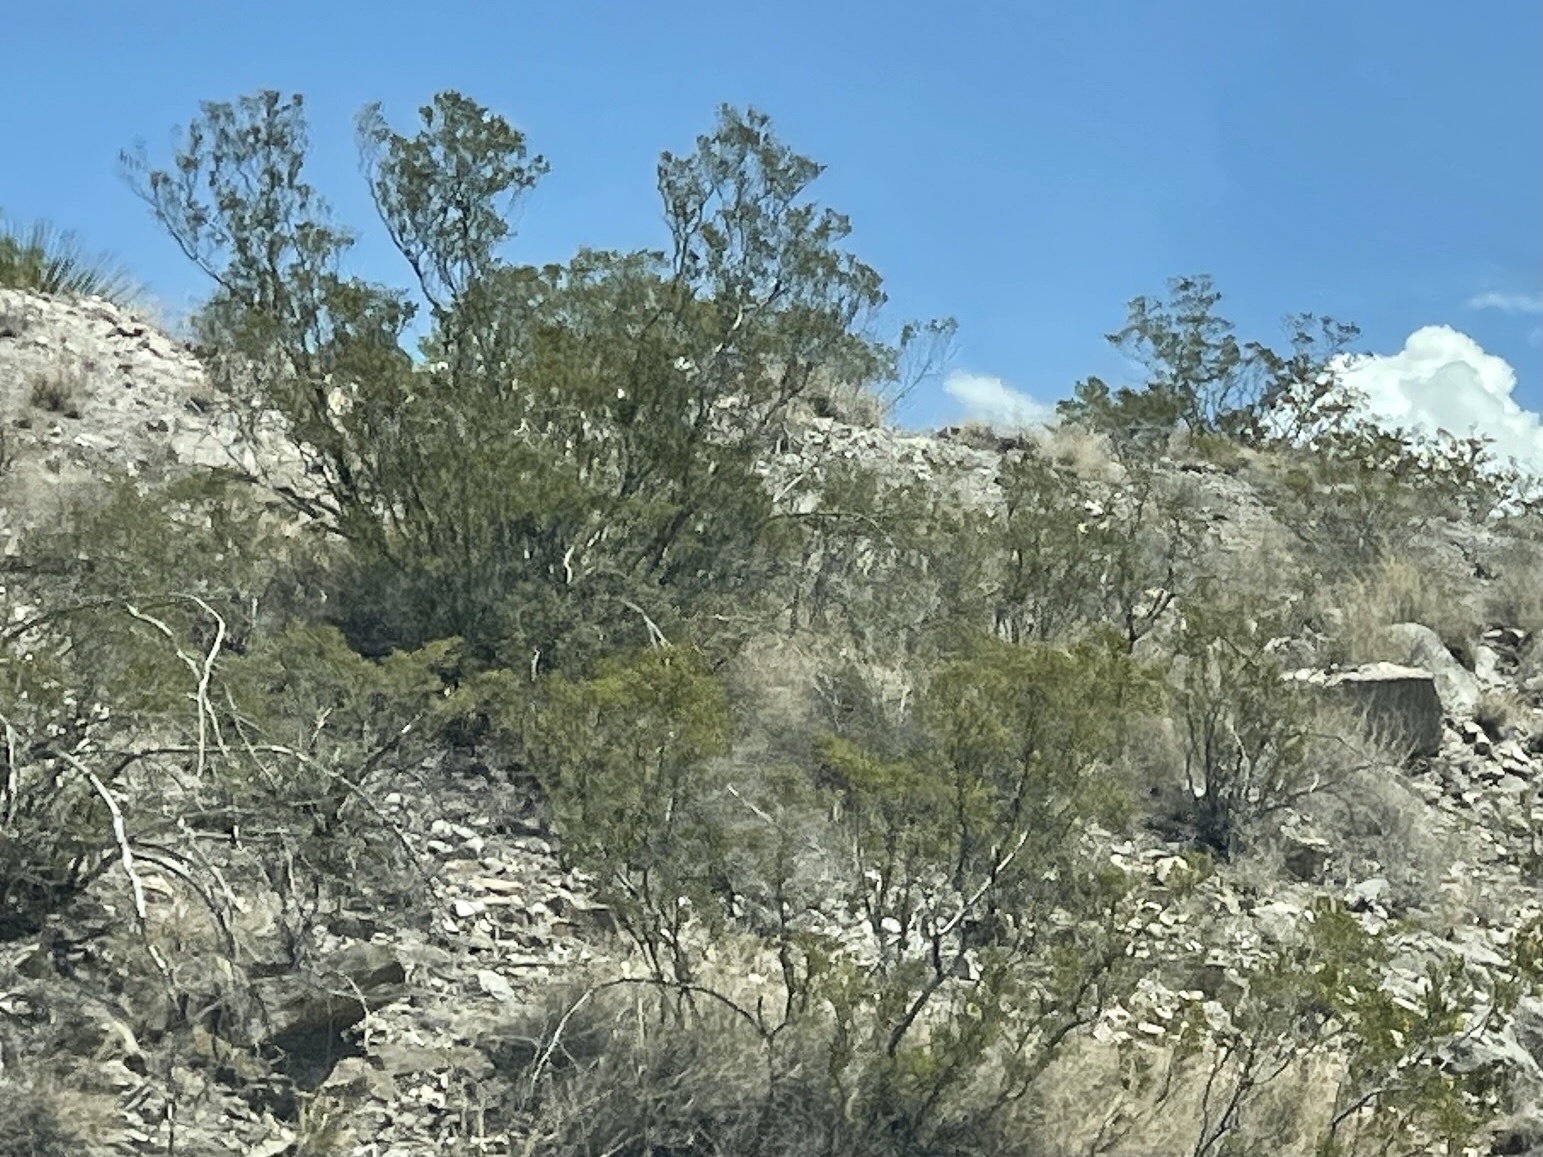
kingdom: Plantae
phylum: Tracheophyta
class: Magnoliopsida
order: Zygophyllales
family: Zygophyllaceae
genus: Larrea
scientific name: Larrea tridentata
